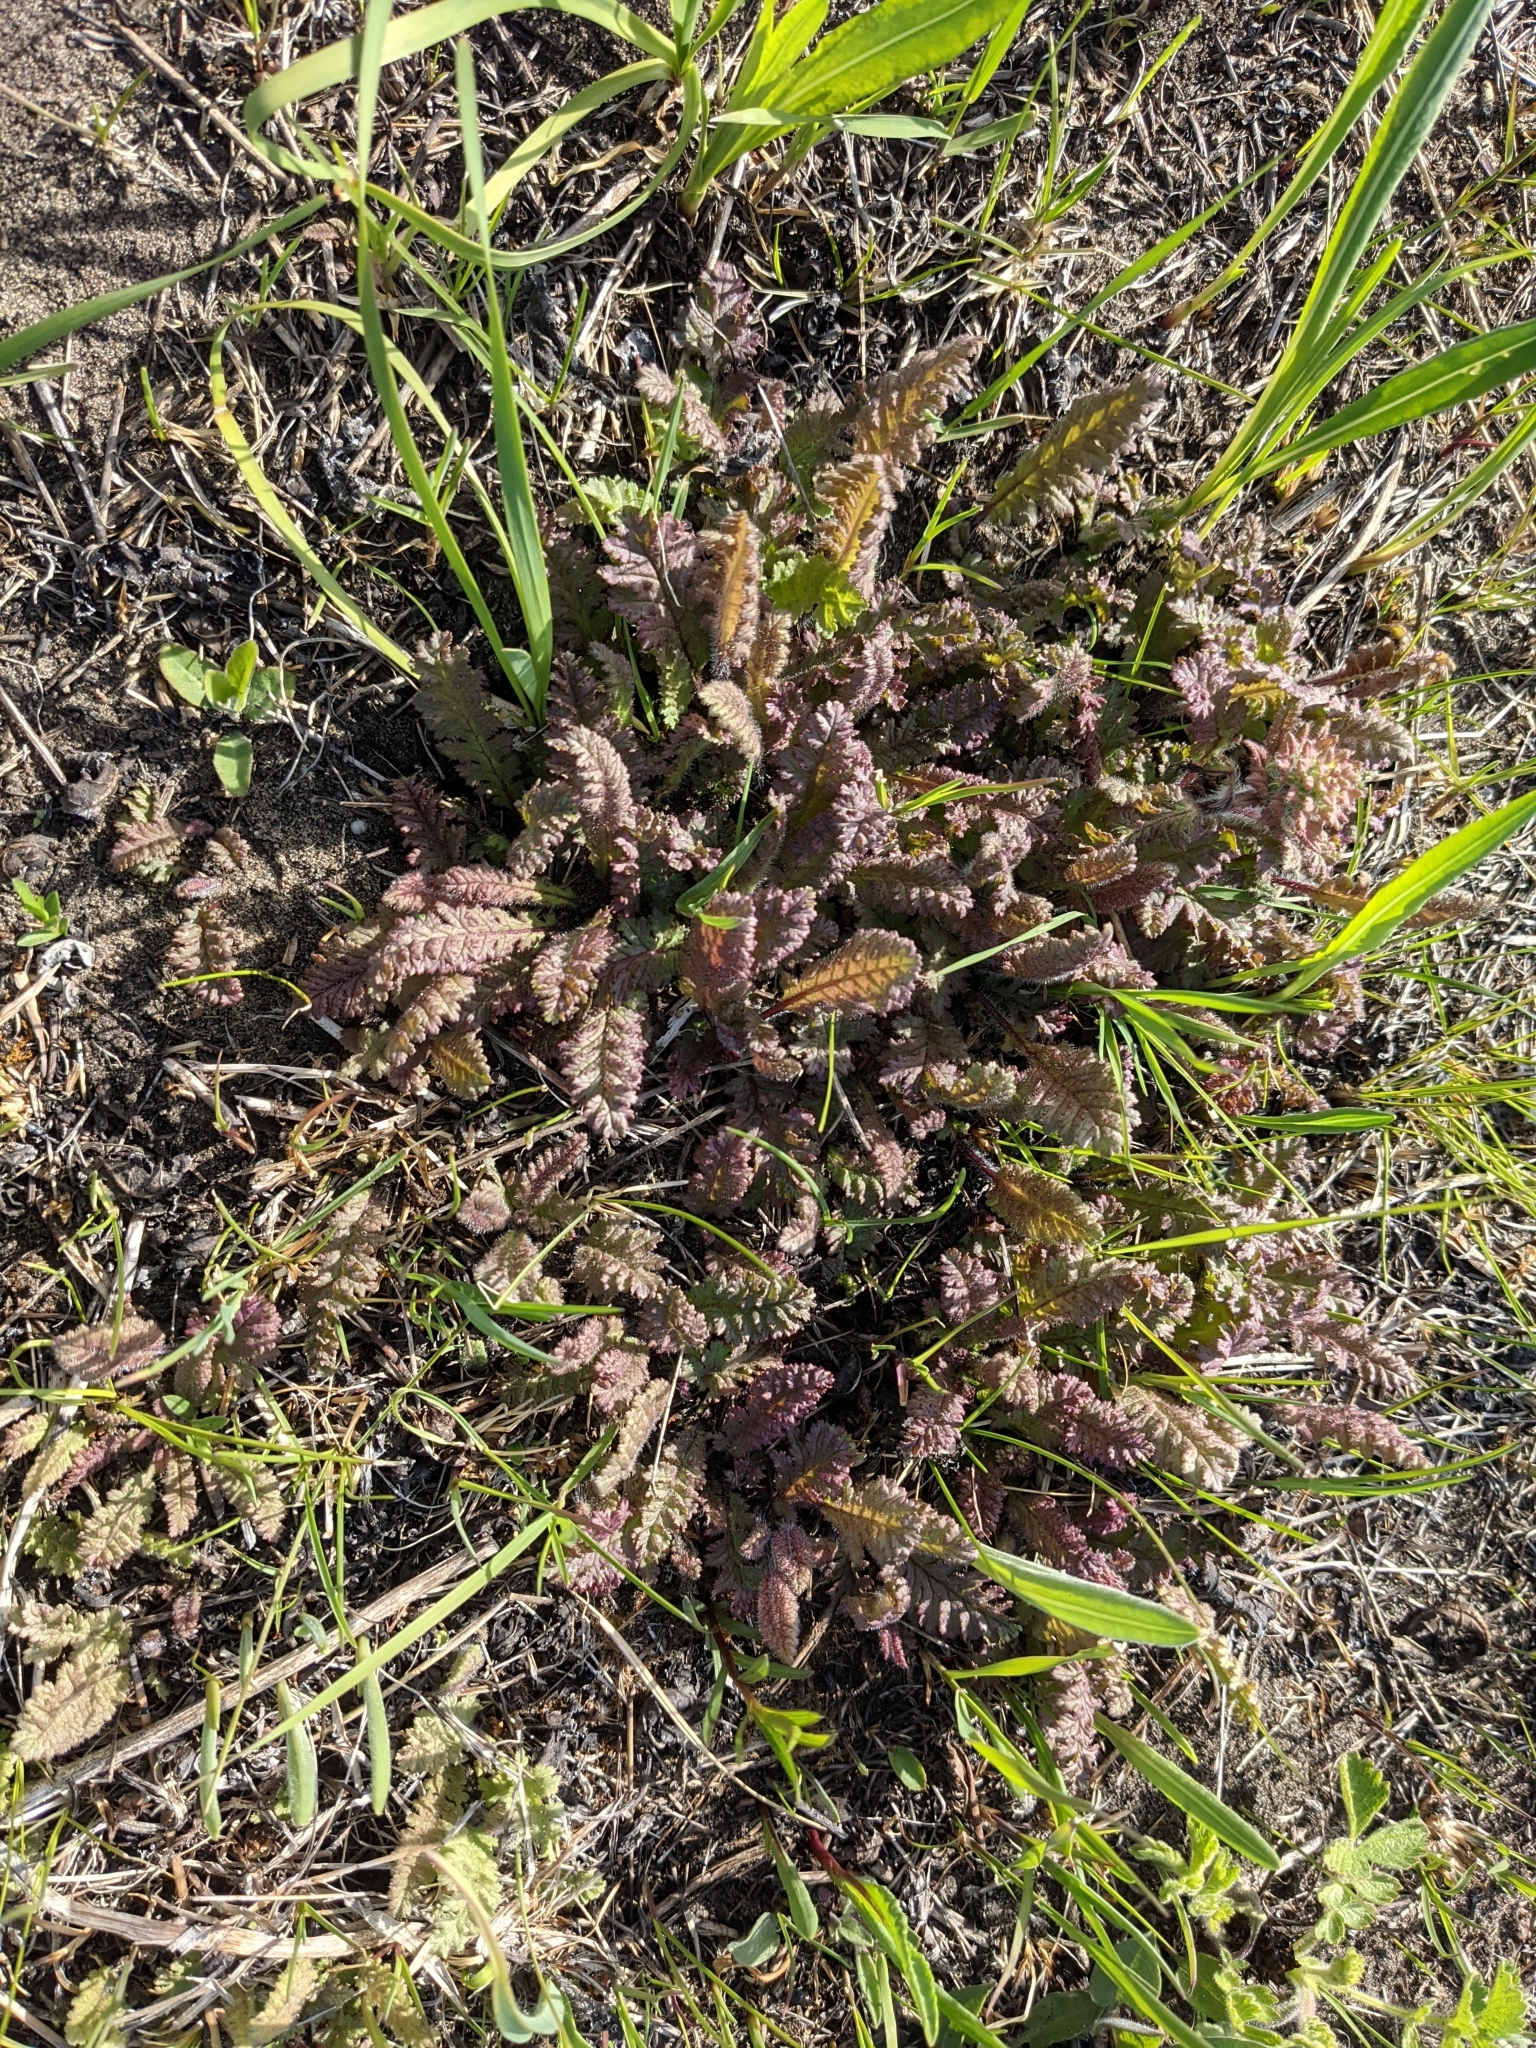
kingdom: Plantae
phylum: Tracheophyta
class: Magnoliopsida
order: Lamiales
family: Orobanchaceae
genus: Pedicularis
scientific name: Pedicularis canadensis
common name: Early lousewort
